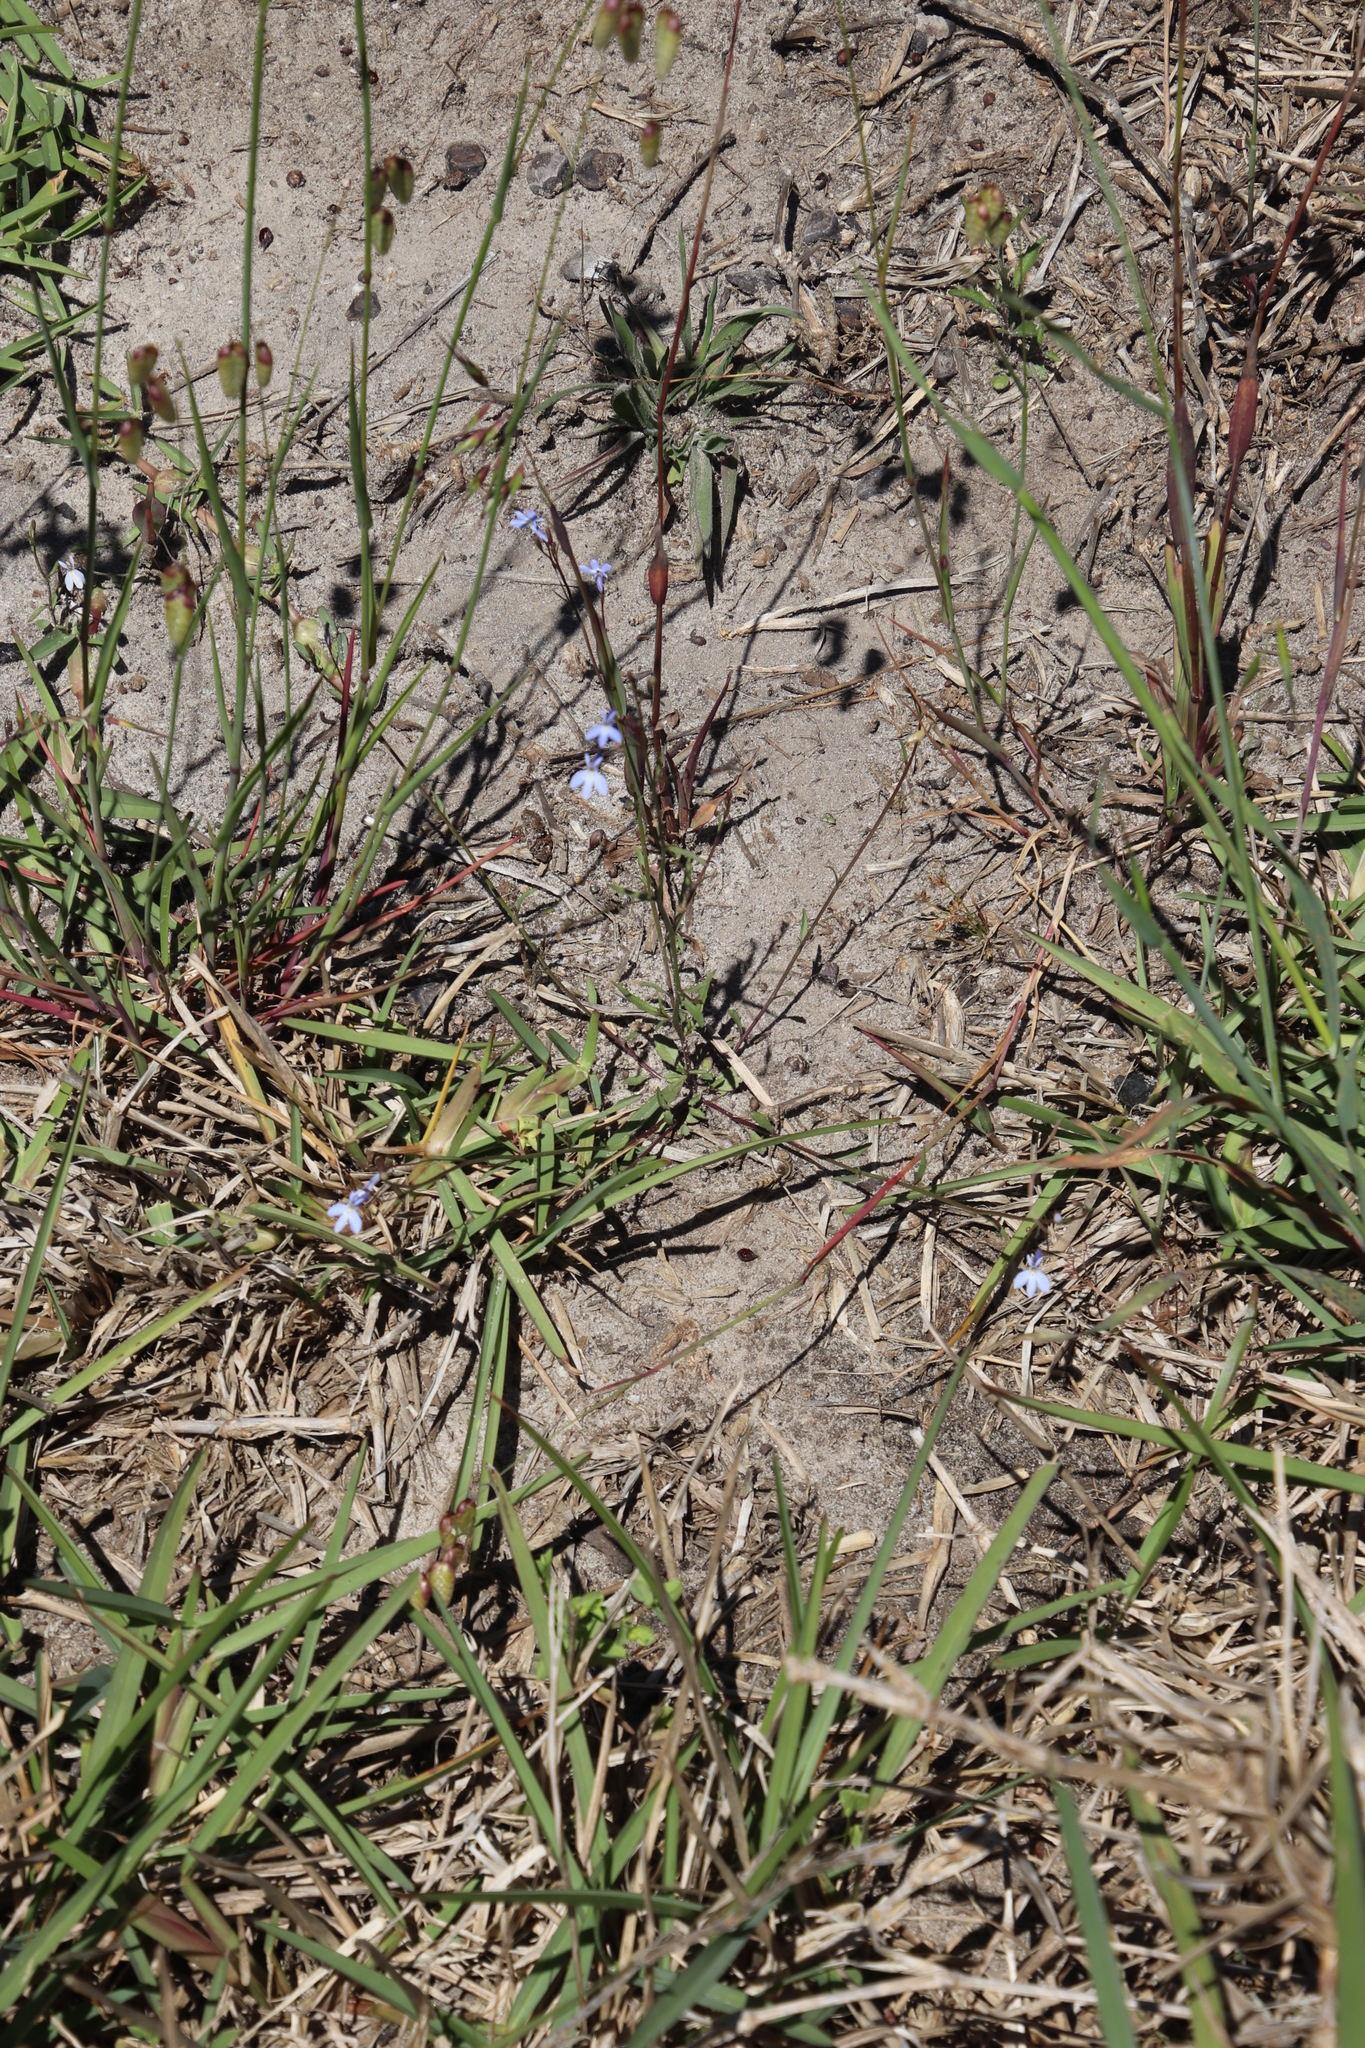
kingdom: Plantae
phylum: Tracheophyta
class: Magnoliopsida
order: Asterales
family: Campanulaceae
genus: Lobelia
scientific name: Lobelia erinus
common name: Edging lobelia
